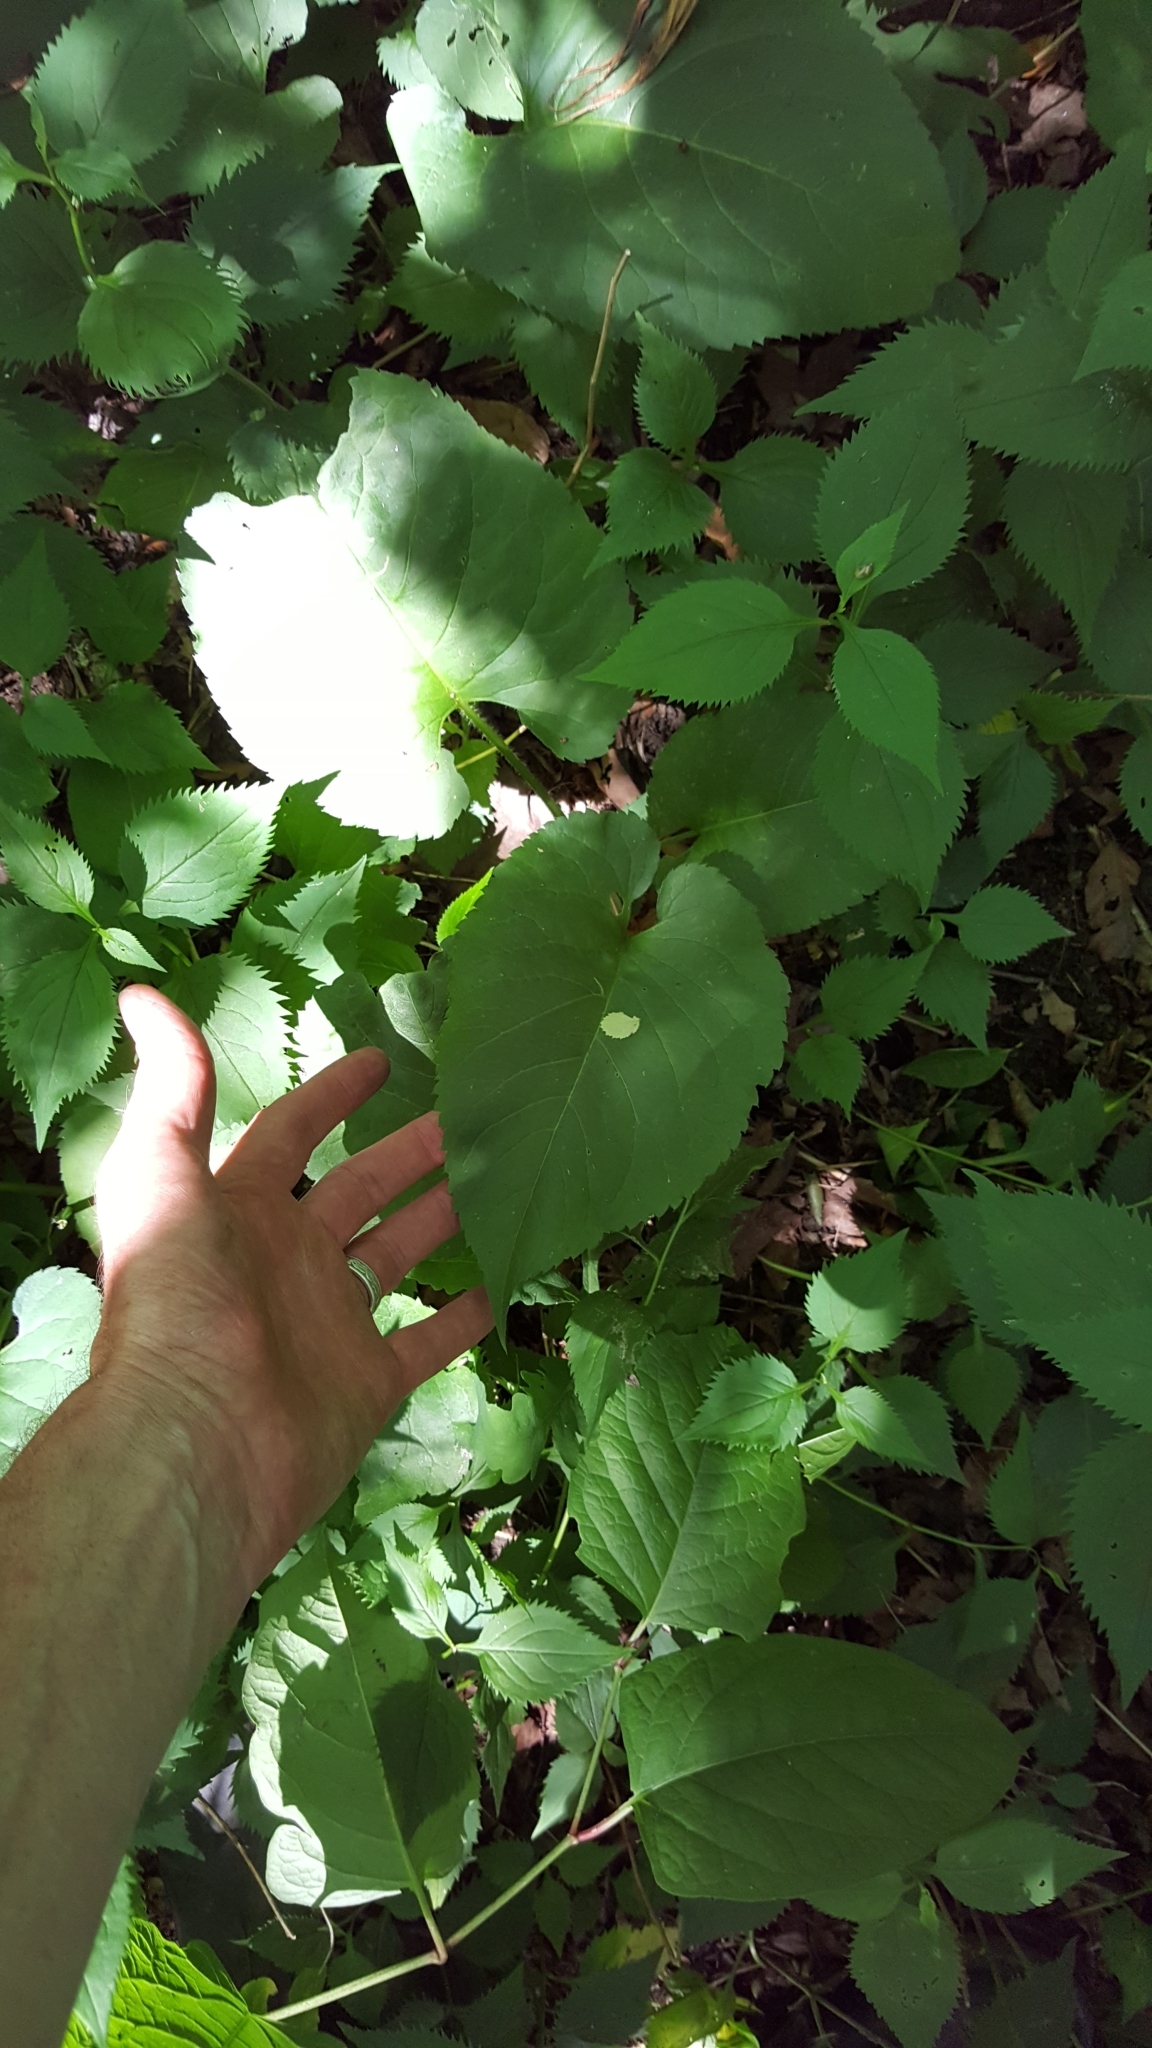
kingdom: Plantae
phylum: Tracheophyta
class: Magnoliopsida
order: Asterales
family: Asteraceae
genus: Eurybia
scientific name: Eurybia macrophylla
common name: Big-leaved aster
